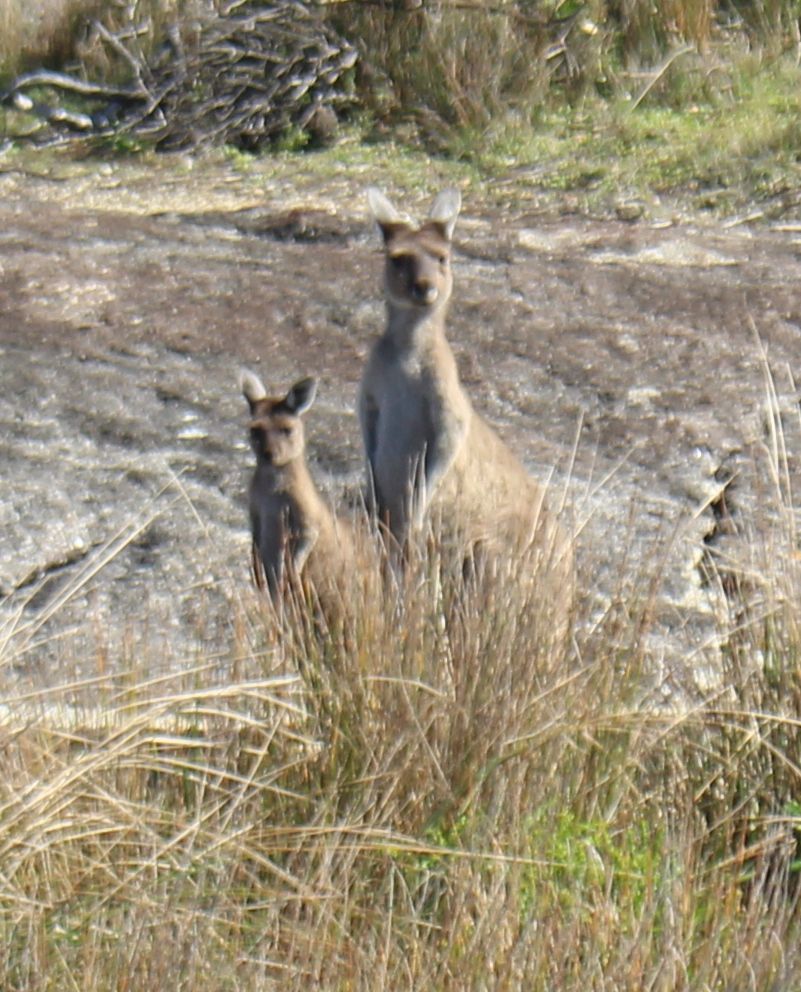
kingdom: Animalia
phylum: Chordata
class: Mammalia
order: Diprotodontia
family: Macropodidae
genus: Macropus
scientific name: Macropus fuliginosus
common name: Western grey kangaroo
